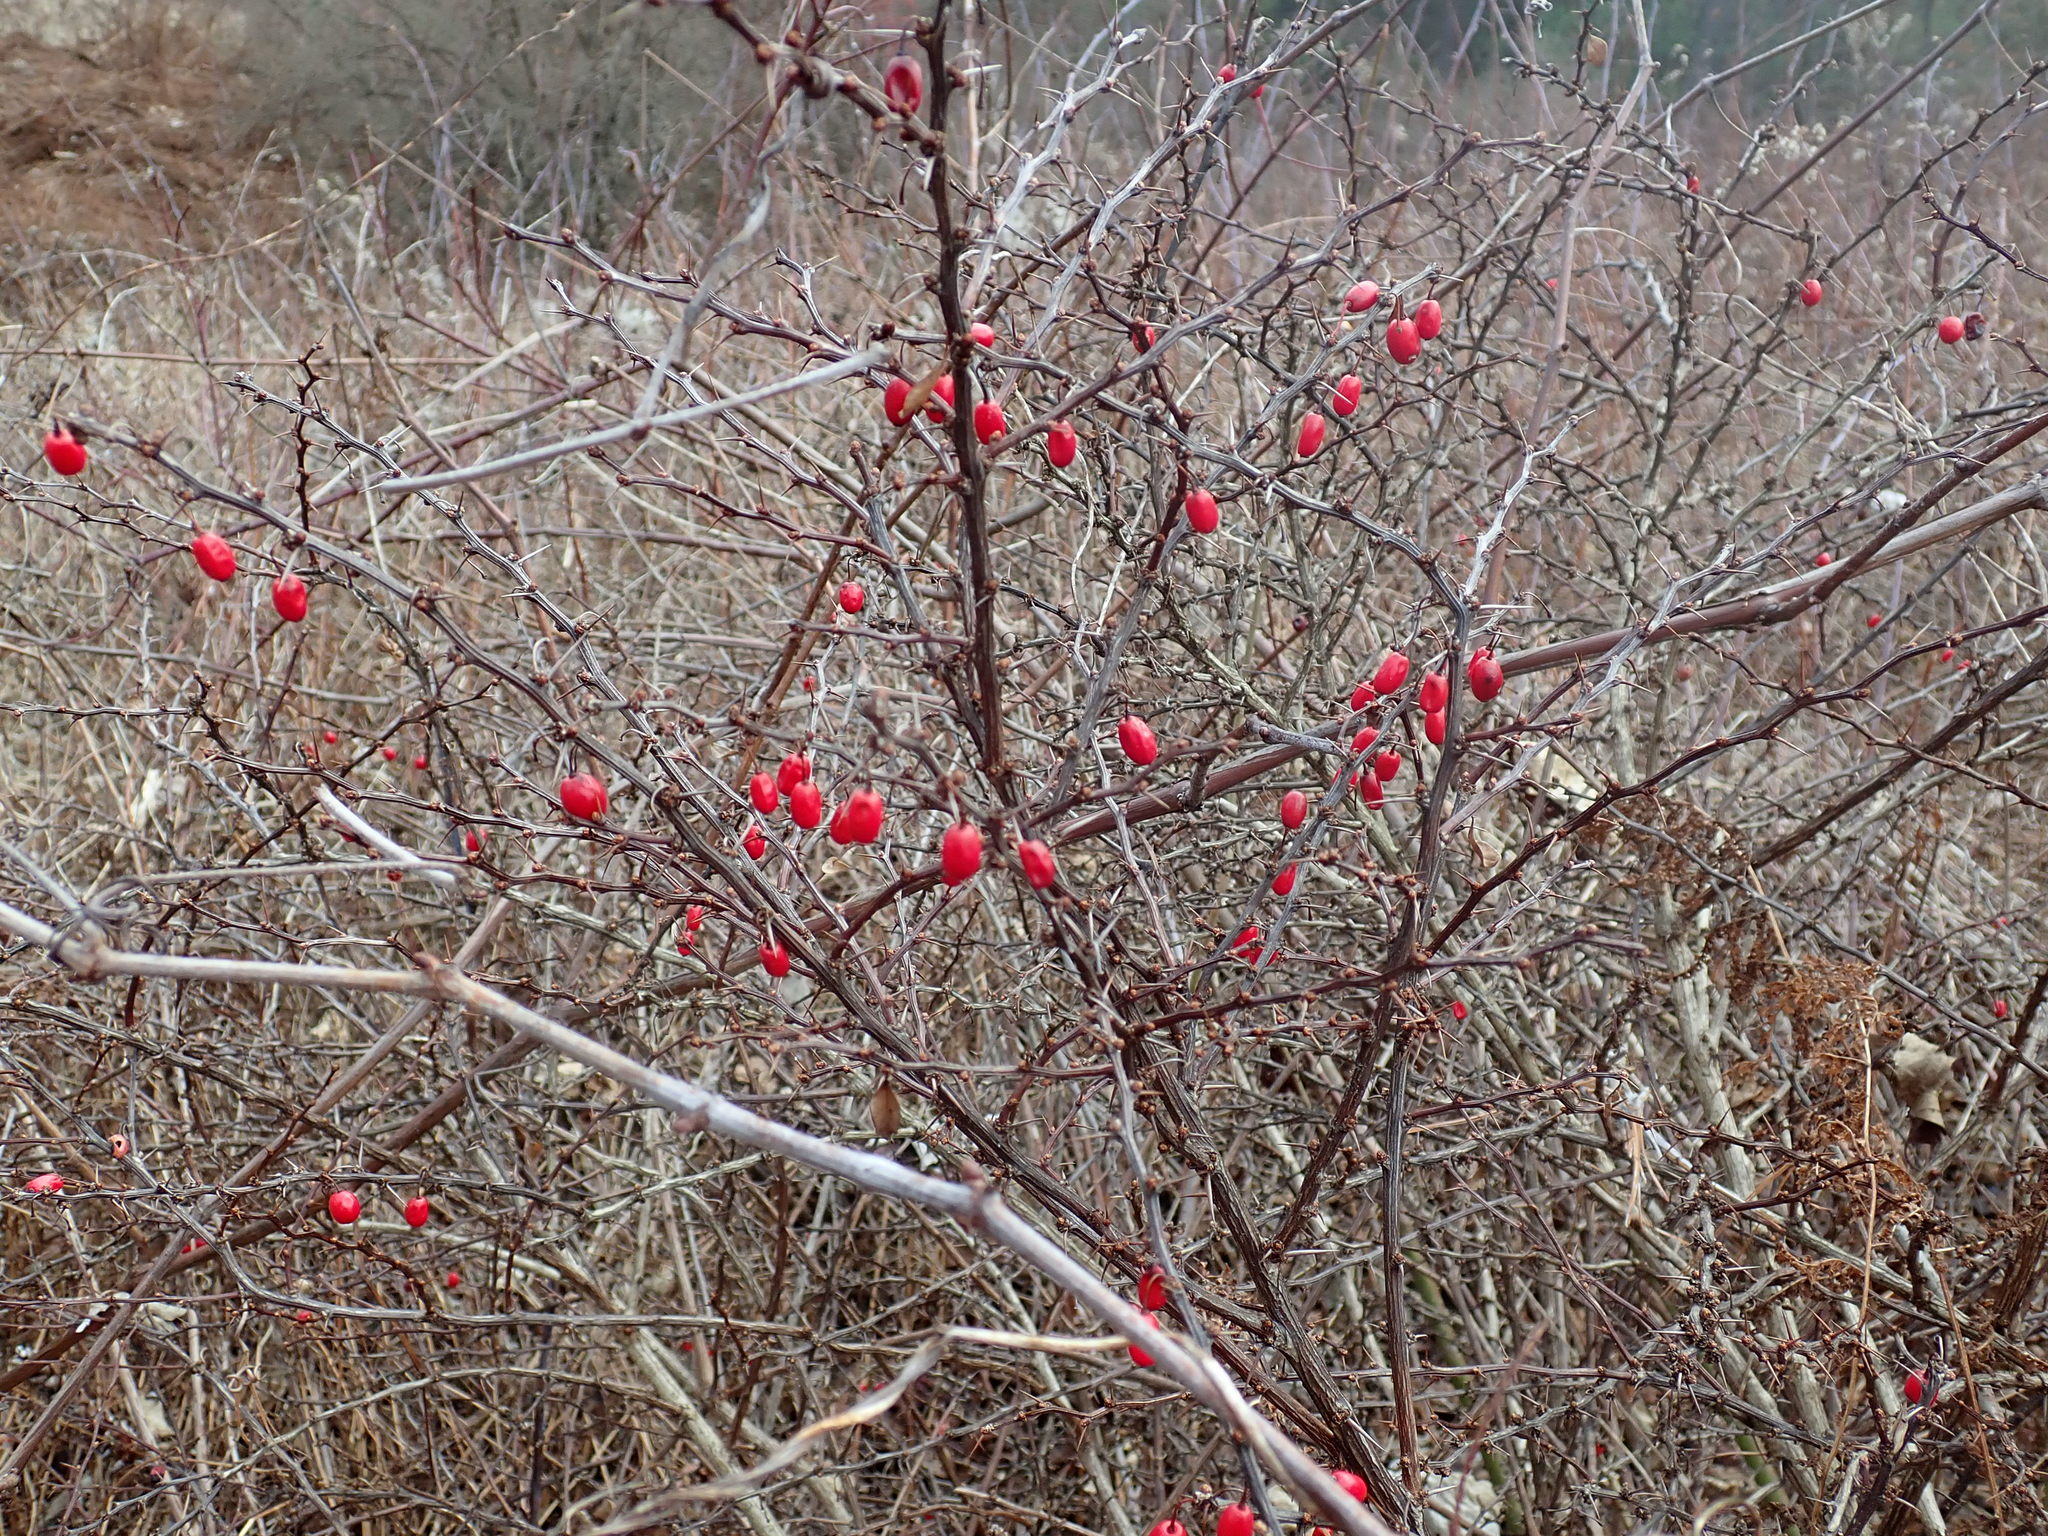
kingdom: Plantae
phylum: Tracheophyta
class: Magnoliopsida
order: Ranunculales
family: Berberidaceae
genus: Berberis
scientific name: Berberis thunbergii
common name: Japanese barberry
